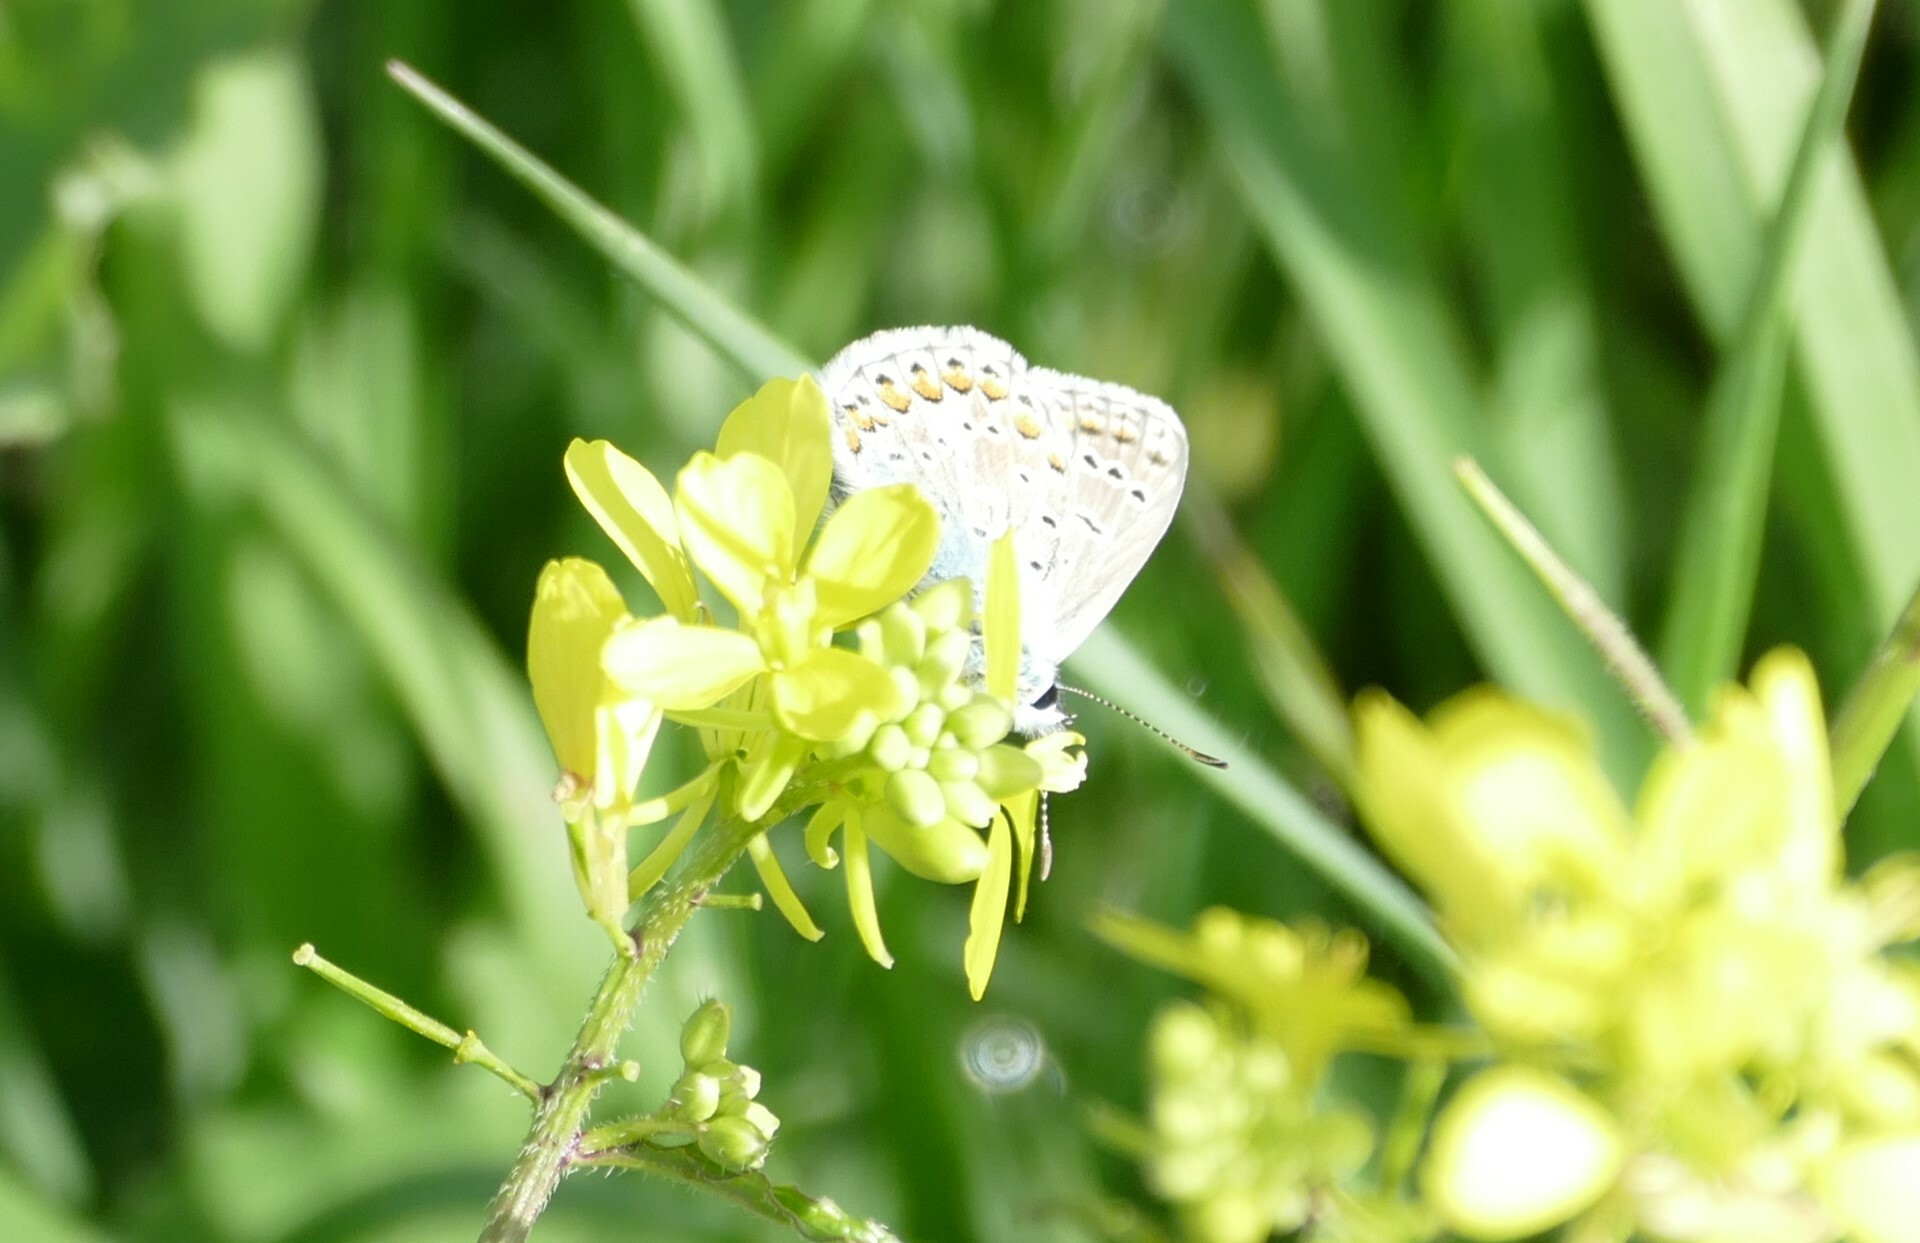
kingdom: Animalia
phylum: Arthropoda
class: Insecta
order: Lepidoptera
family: Lycaenidae
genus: Polyommatus
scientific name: Polyommatus icarus
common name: Common blue
